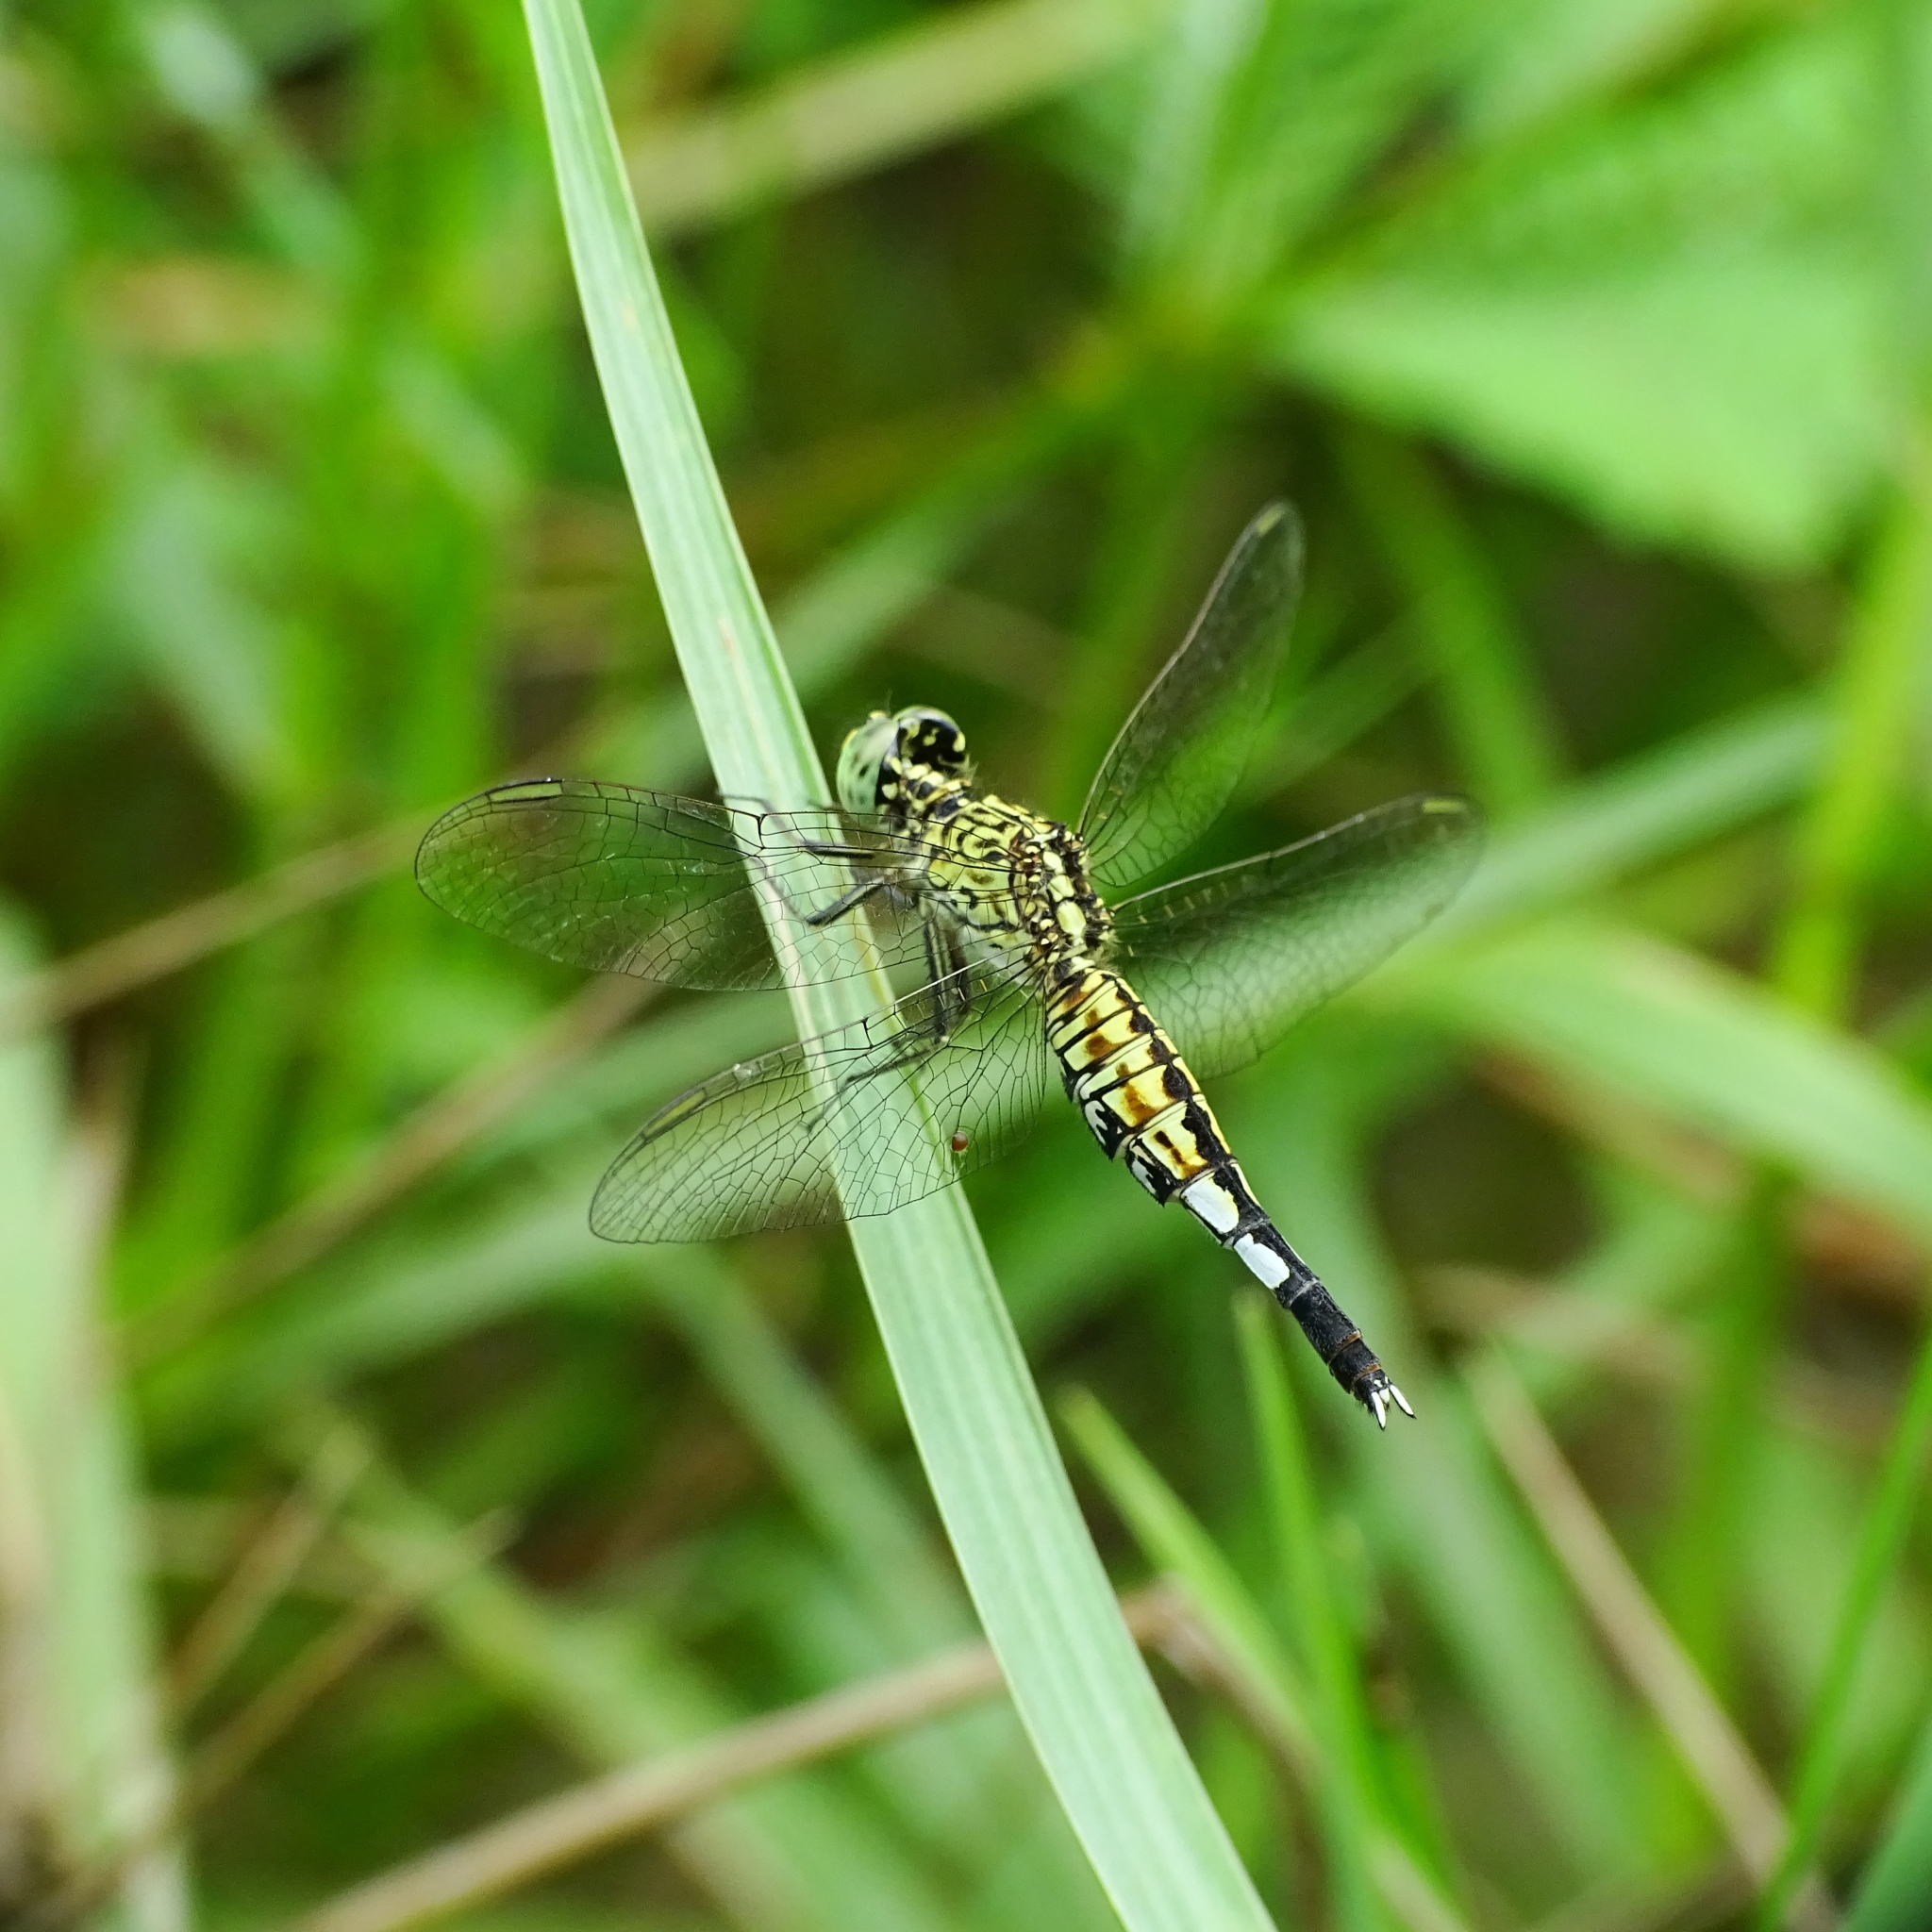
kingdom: Animalia
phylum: Arthropoda
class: Insecta
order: Odonata
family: Libellulidae
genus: Acisoma
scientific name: Acisoma panorpoides
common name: Asian pintail
